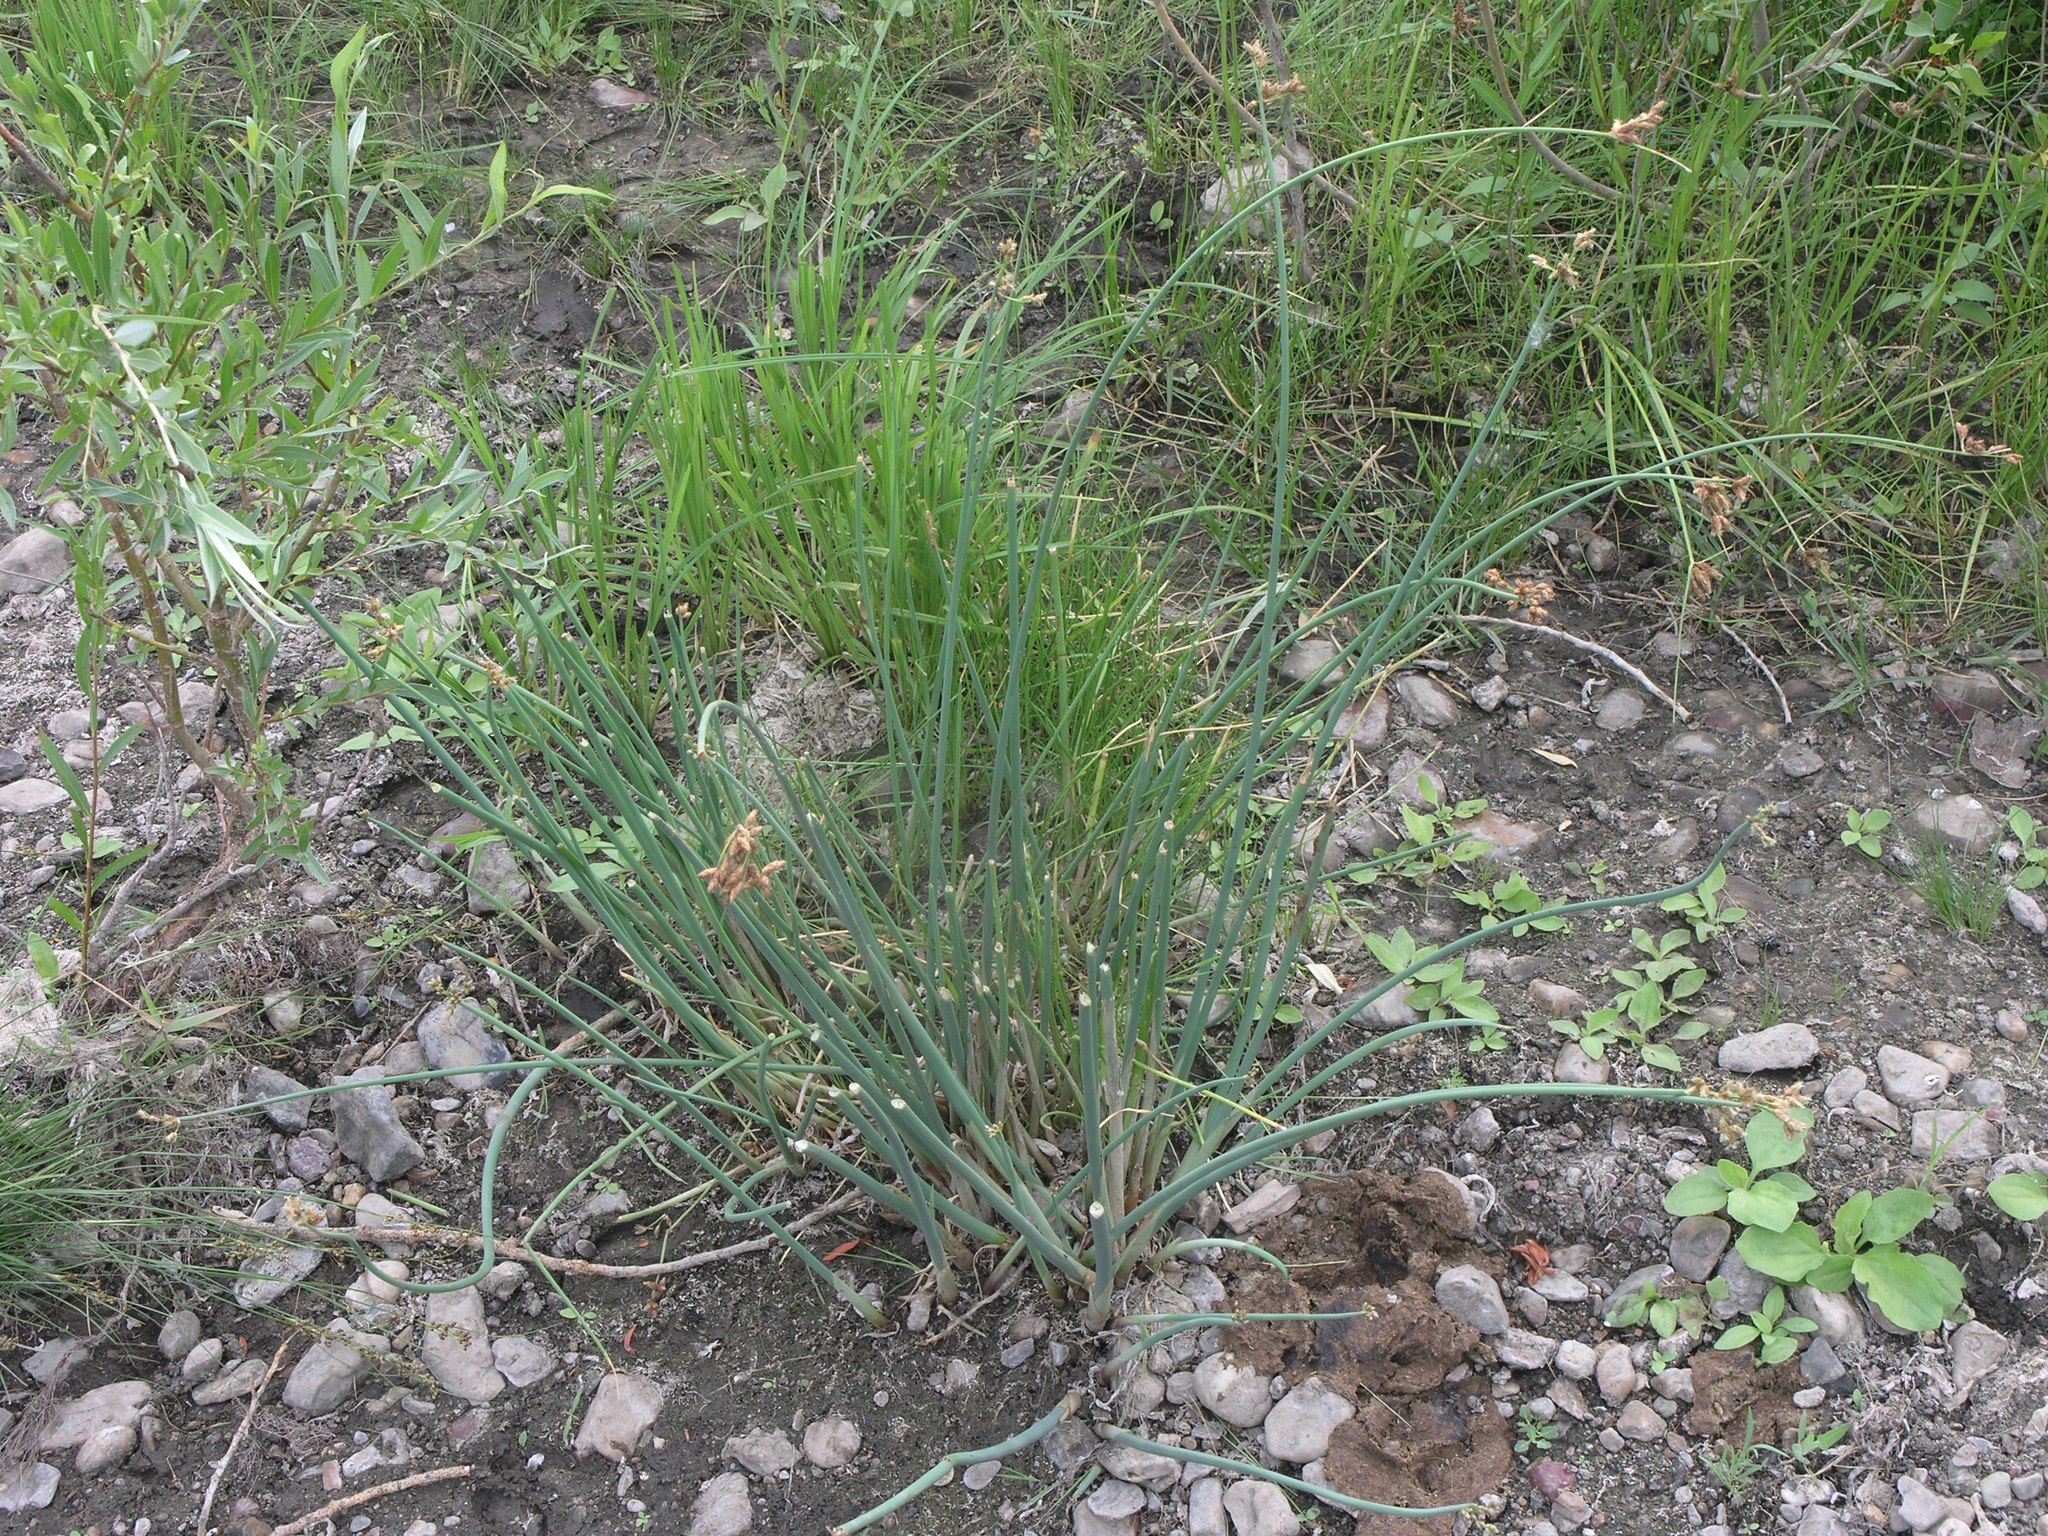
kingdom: Plantae
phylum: Tracheophyta
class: Liliopsida
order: Poales
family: Cyperaceae
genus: Schoenoplectus
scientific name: Schoenoplectus lacustris
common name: Common club-rush
